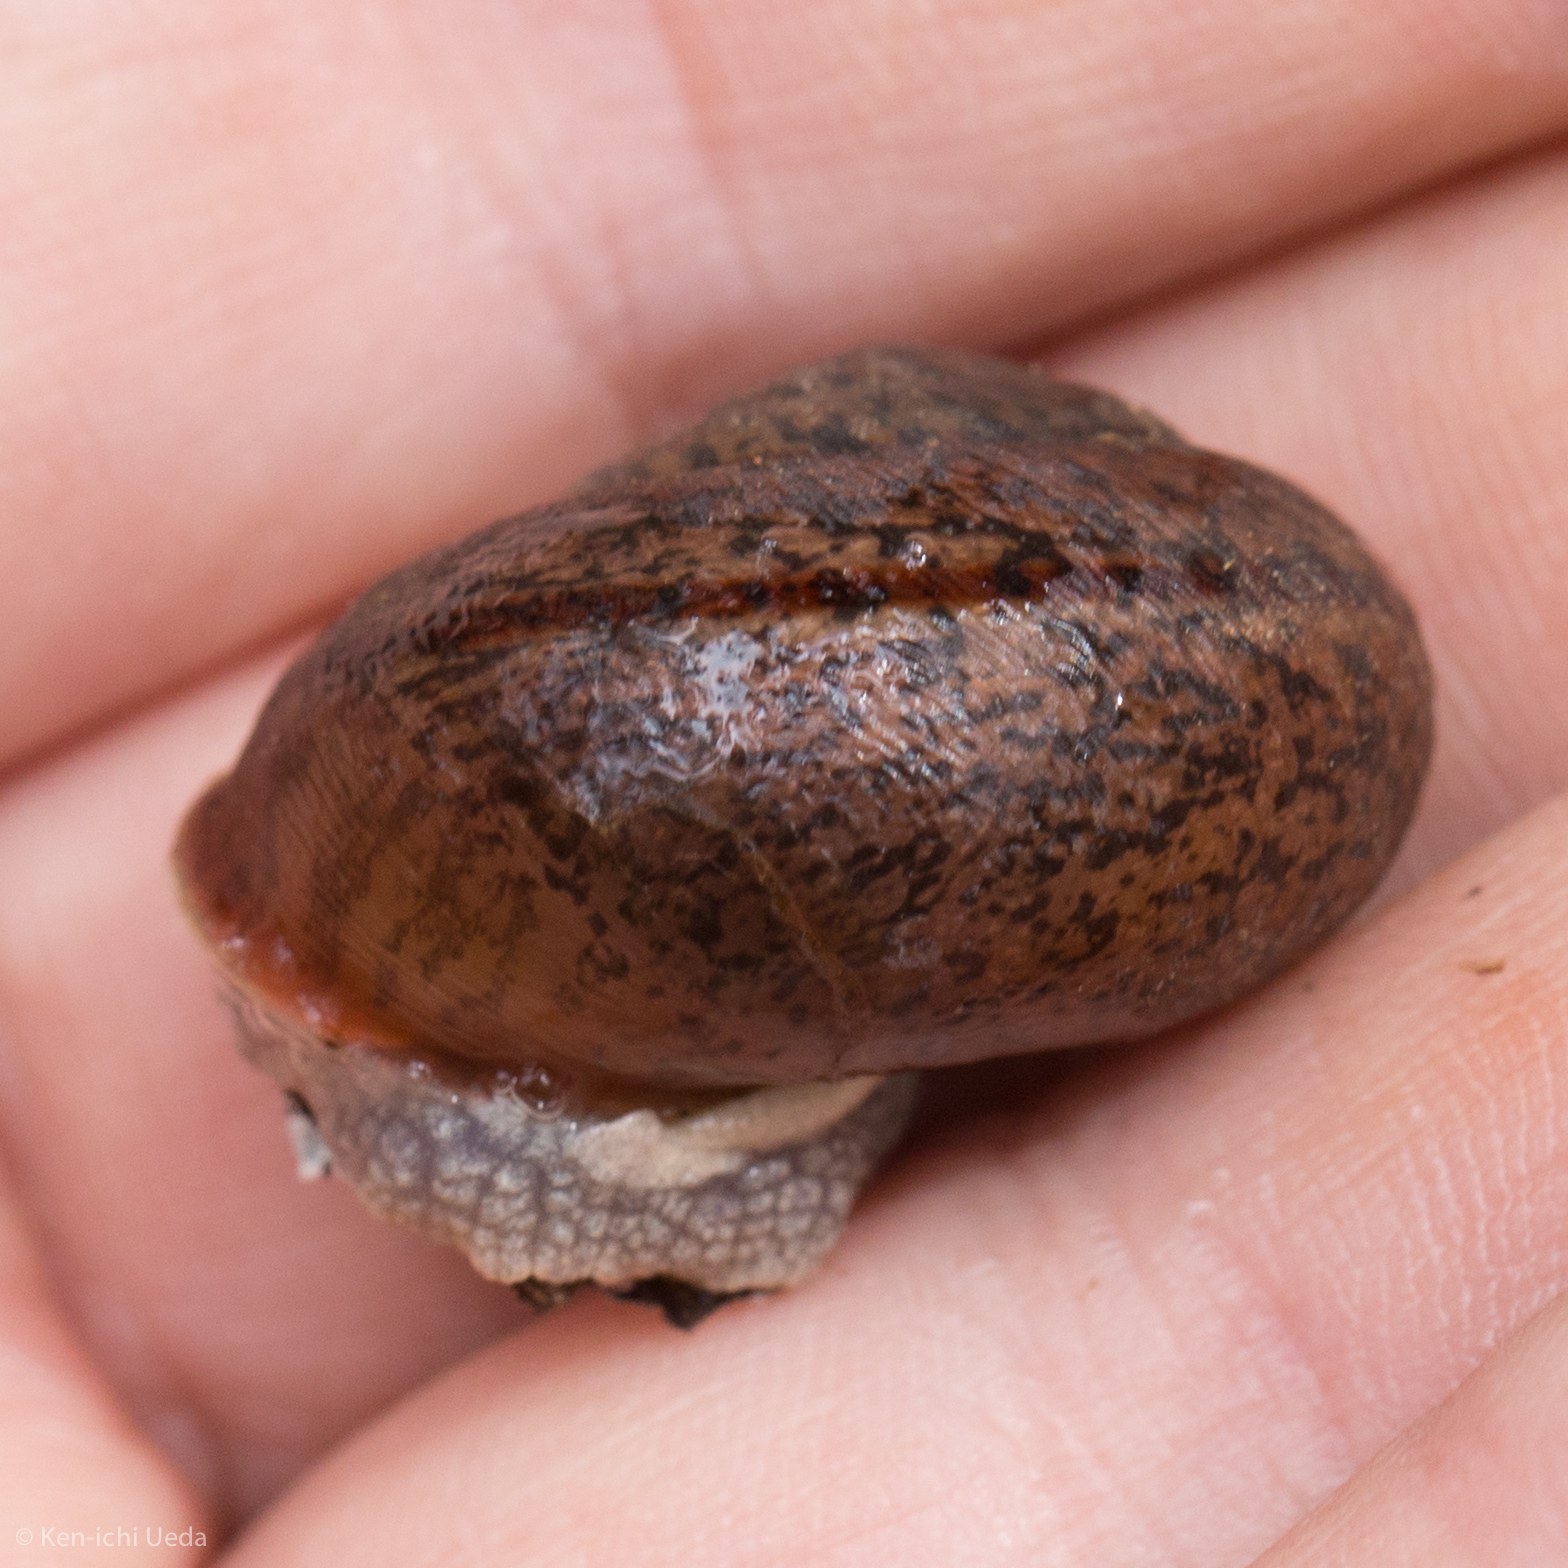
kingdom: Animalia
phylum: Mollusca
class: Gastropoda
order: Stylommatophora
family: Xanthonychidae
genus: Helminthoglypta
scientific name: Helminthoglypta cypreophila
